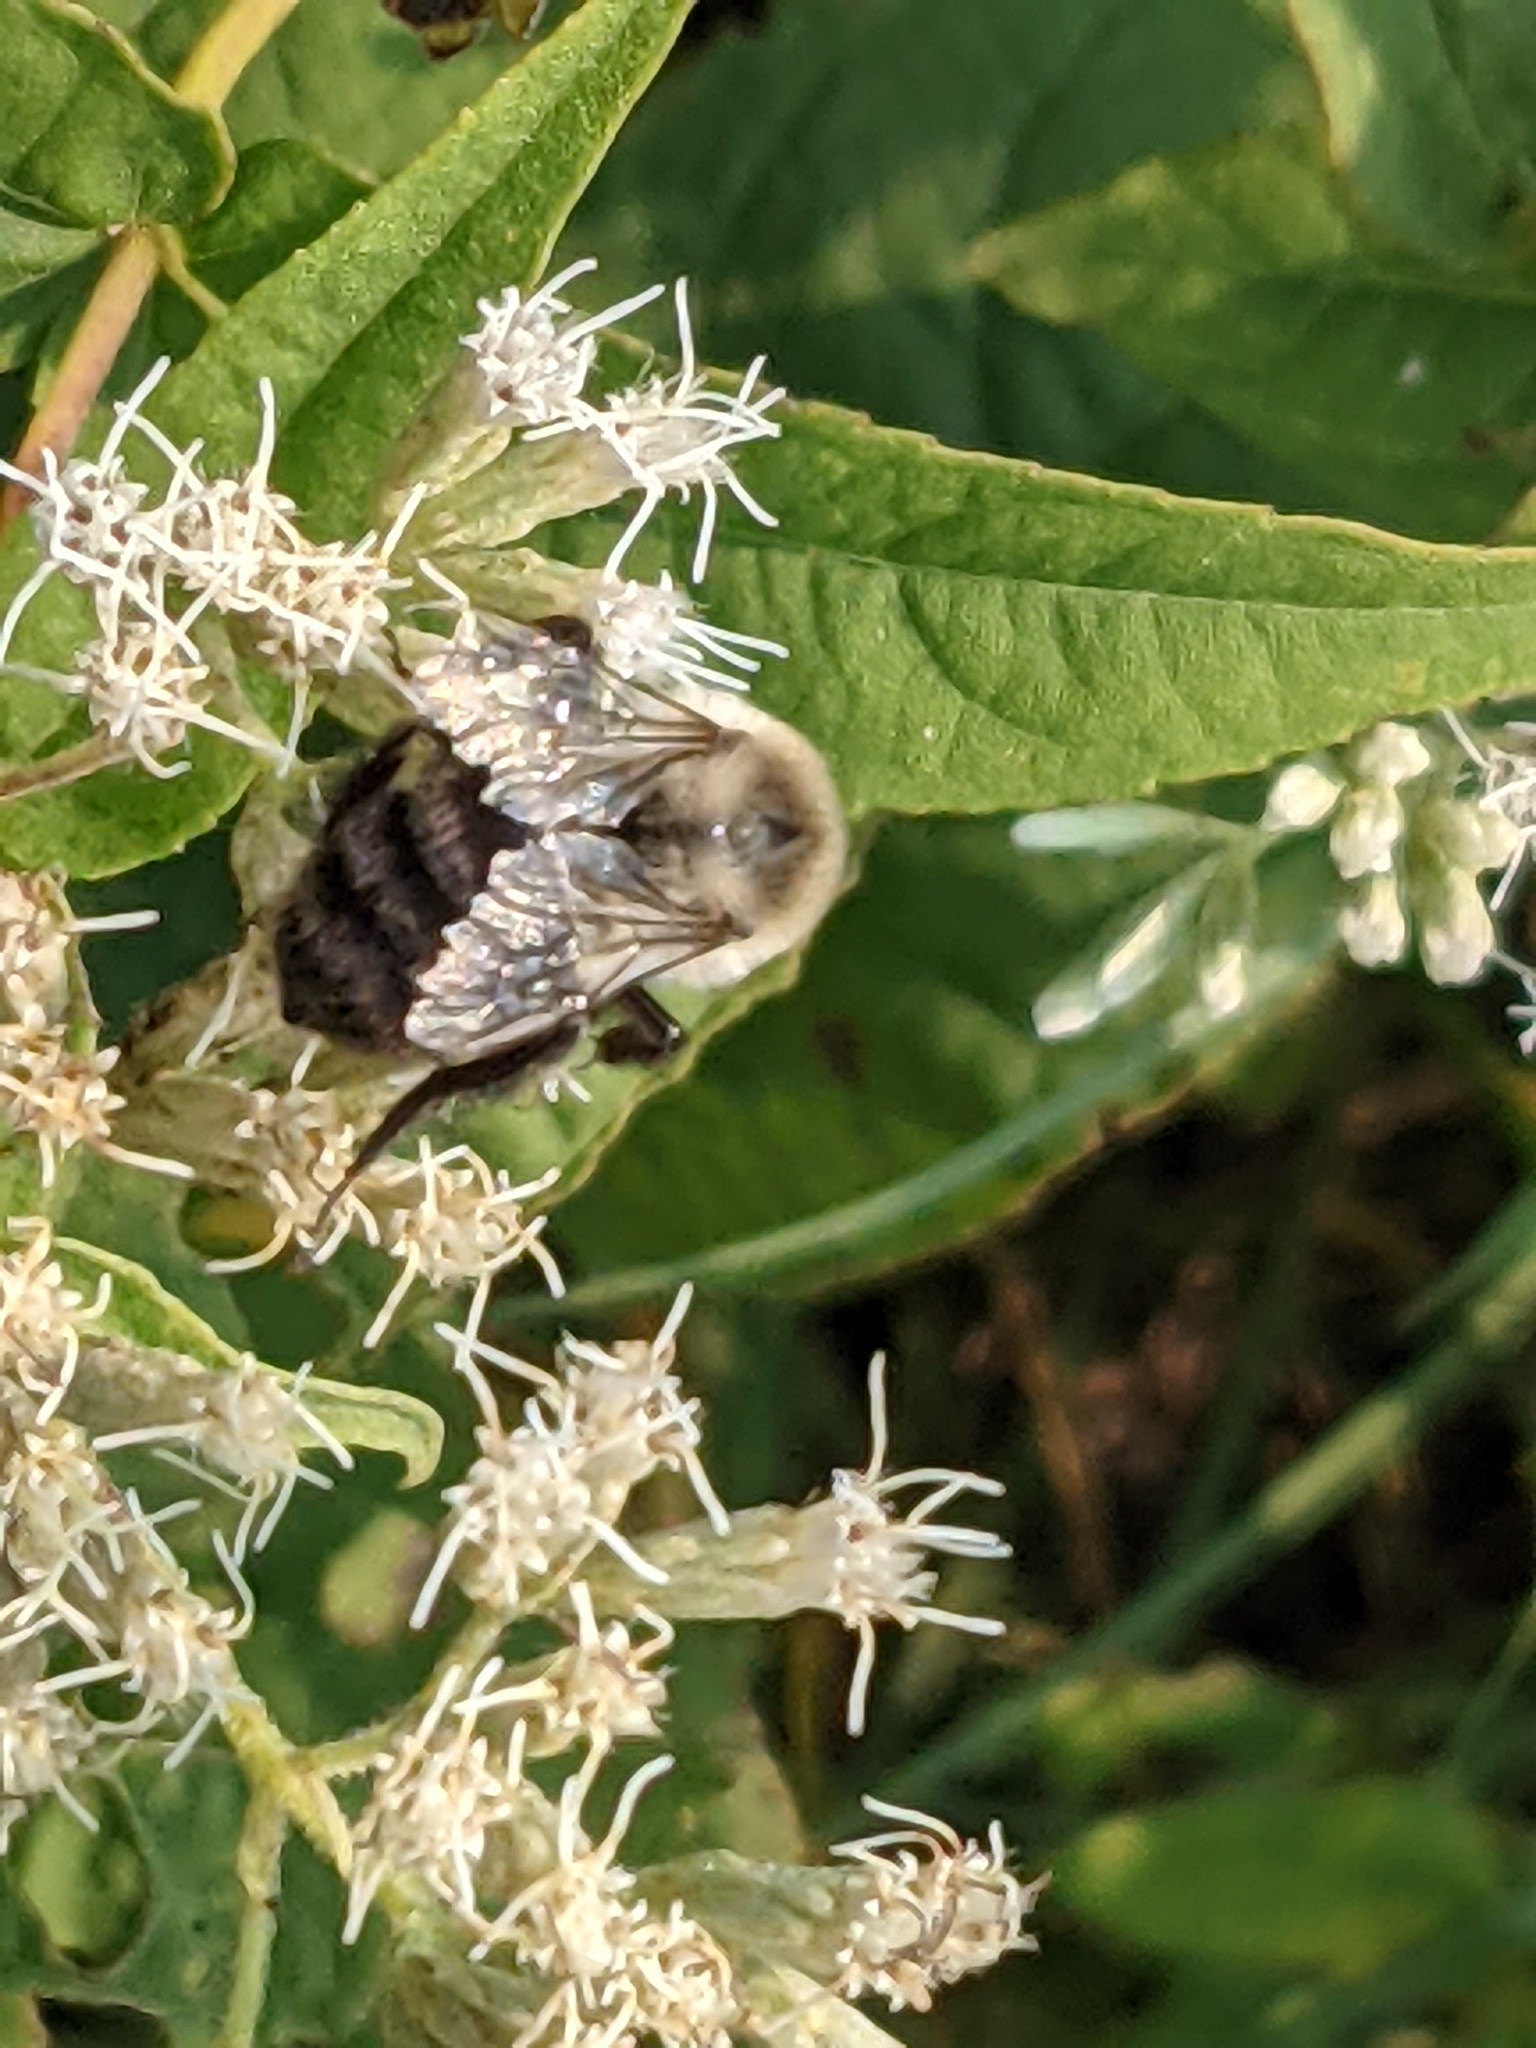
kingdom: Animalia
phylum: Arthropoda
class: Insecta
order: Hymenoptera
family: Apidae
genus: Bombus
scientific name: Bombus impatiens
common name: Common eastern bumble bee
